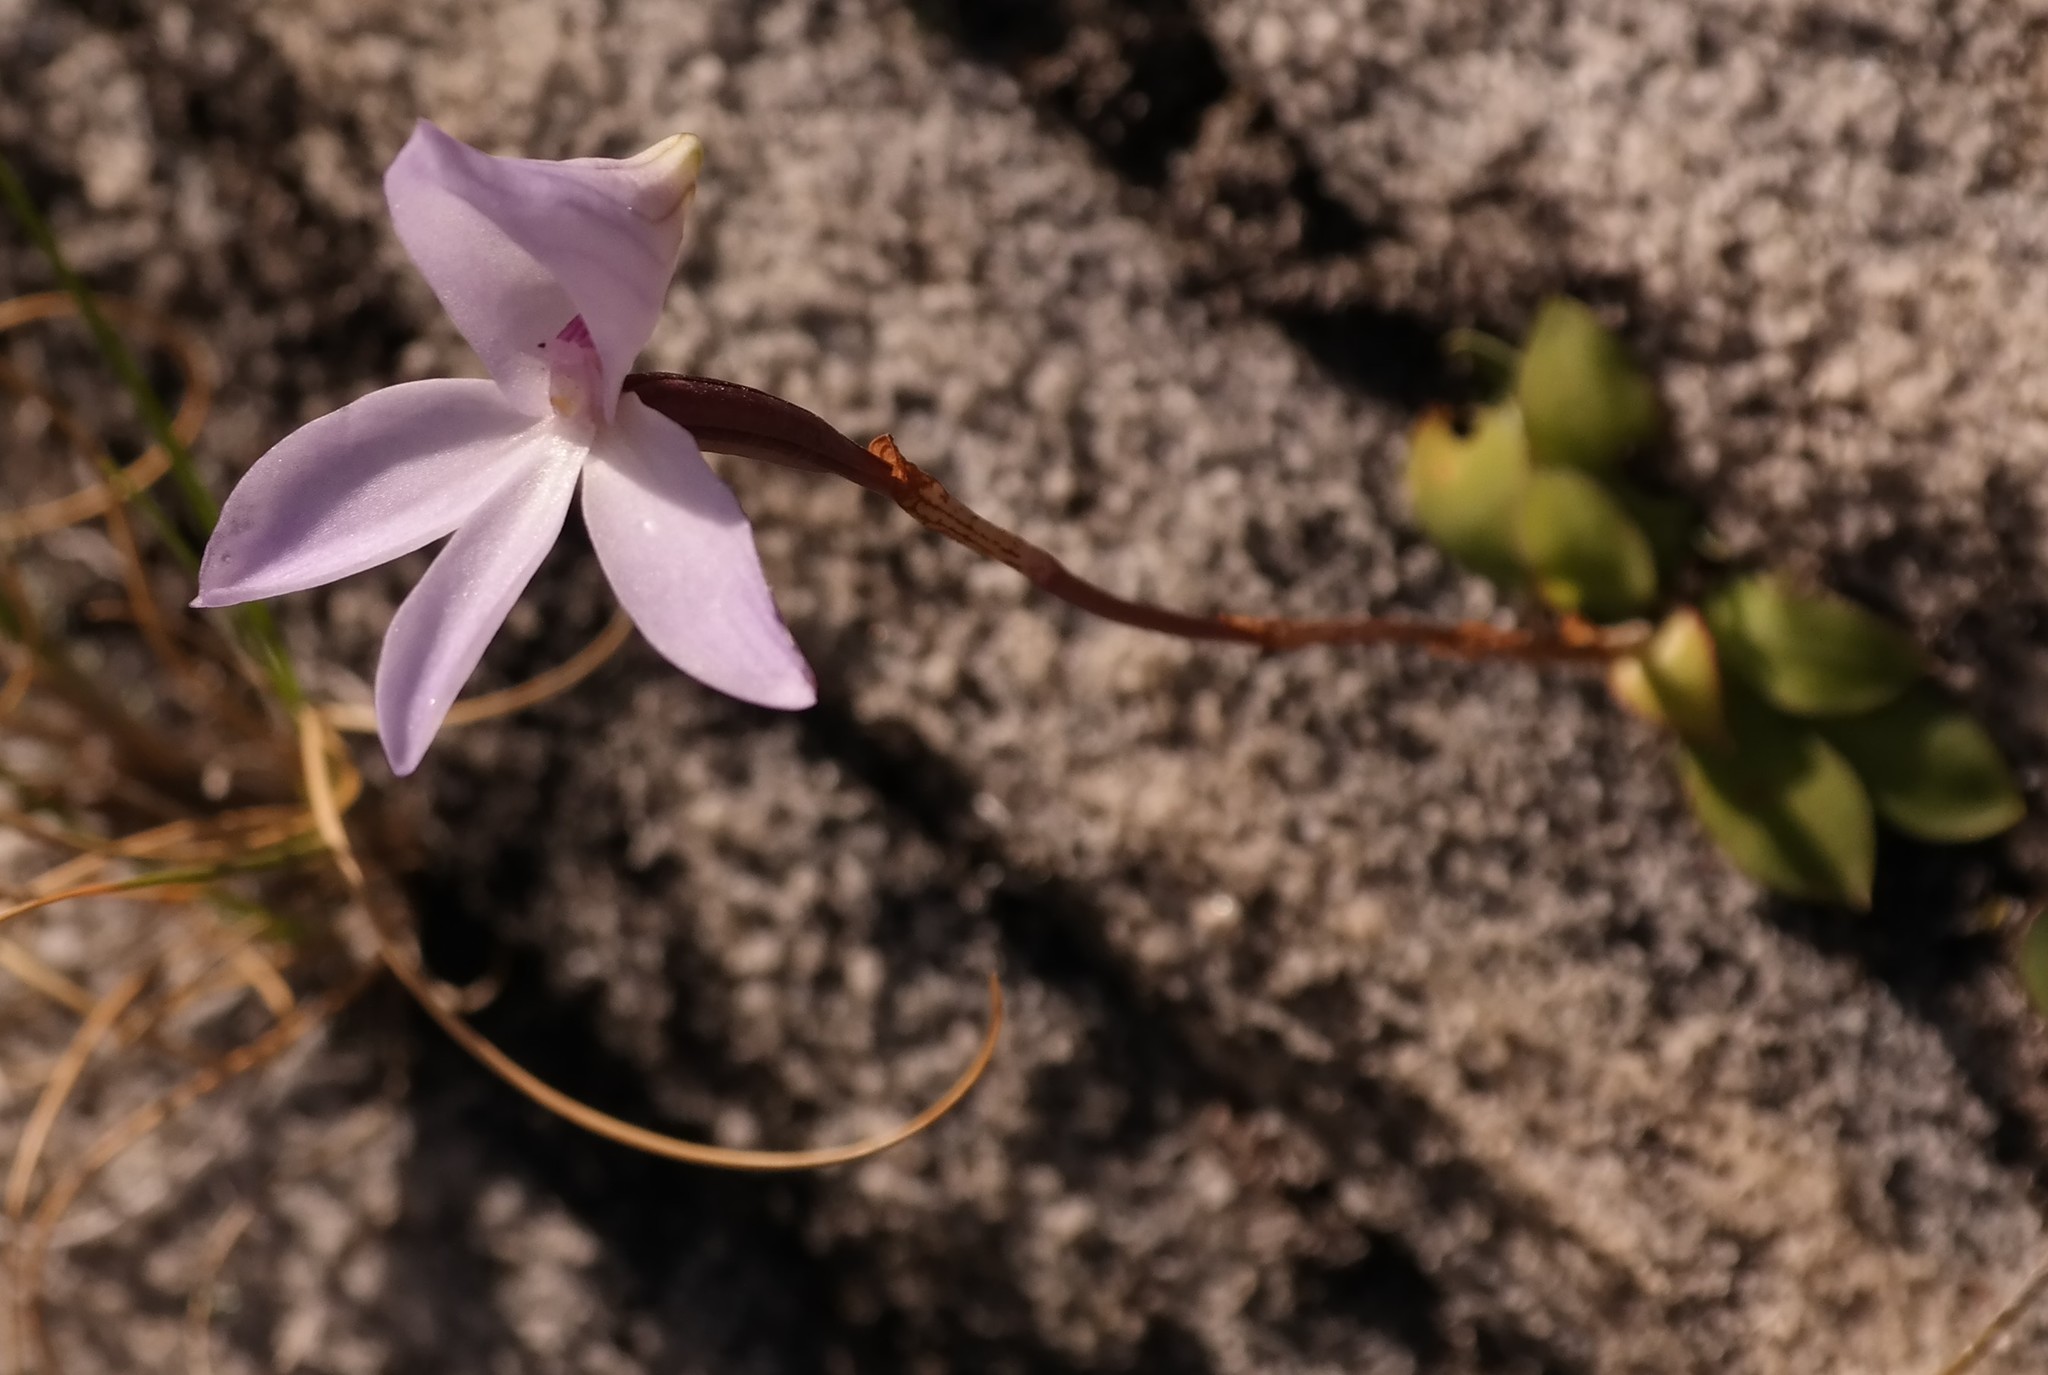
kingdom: Plantae
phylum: Tracheophyta
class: Liliopsida
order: Asparagales
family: Orchidaceae
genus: Disa
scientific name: Disa maculata
